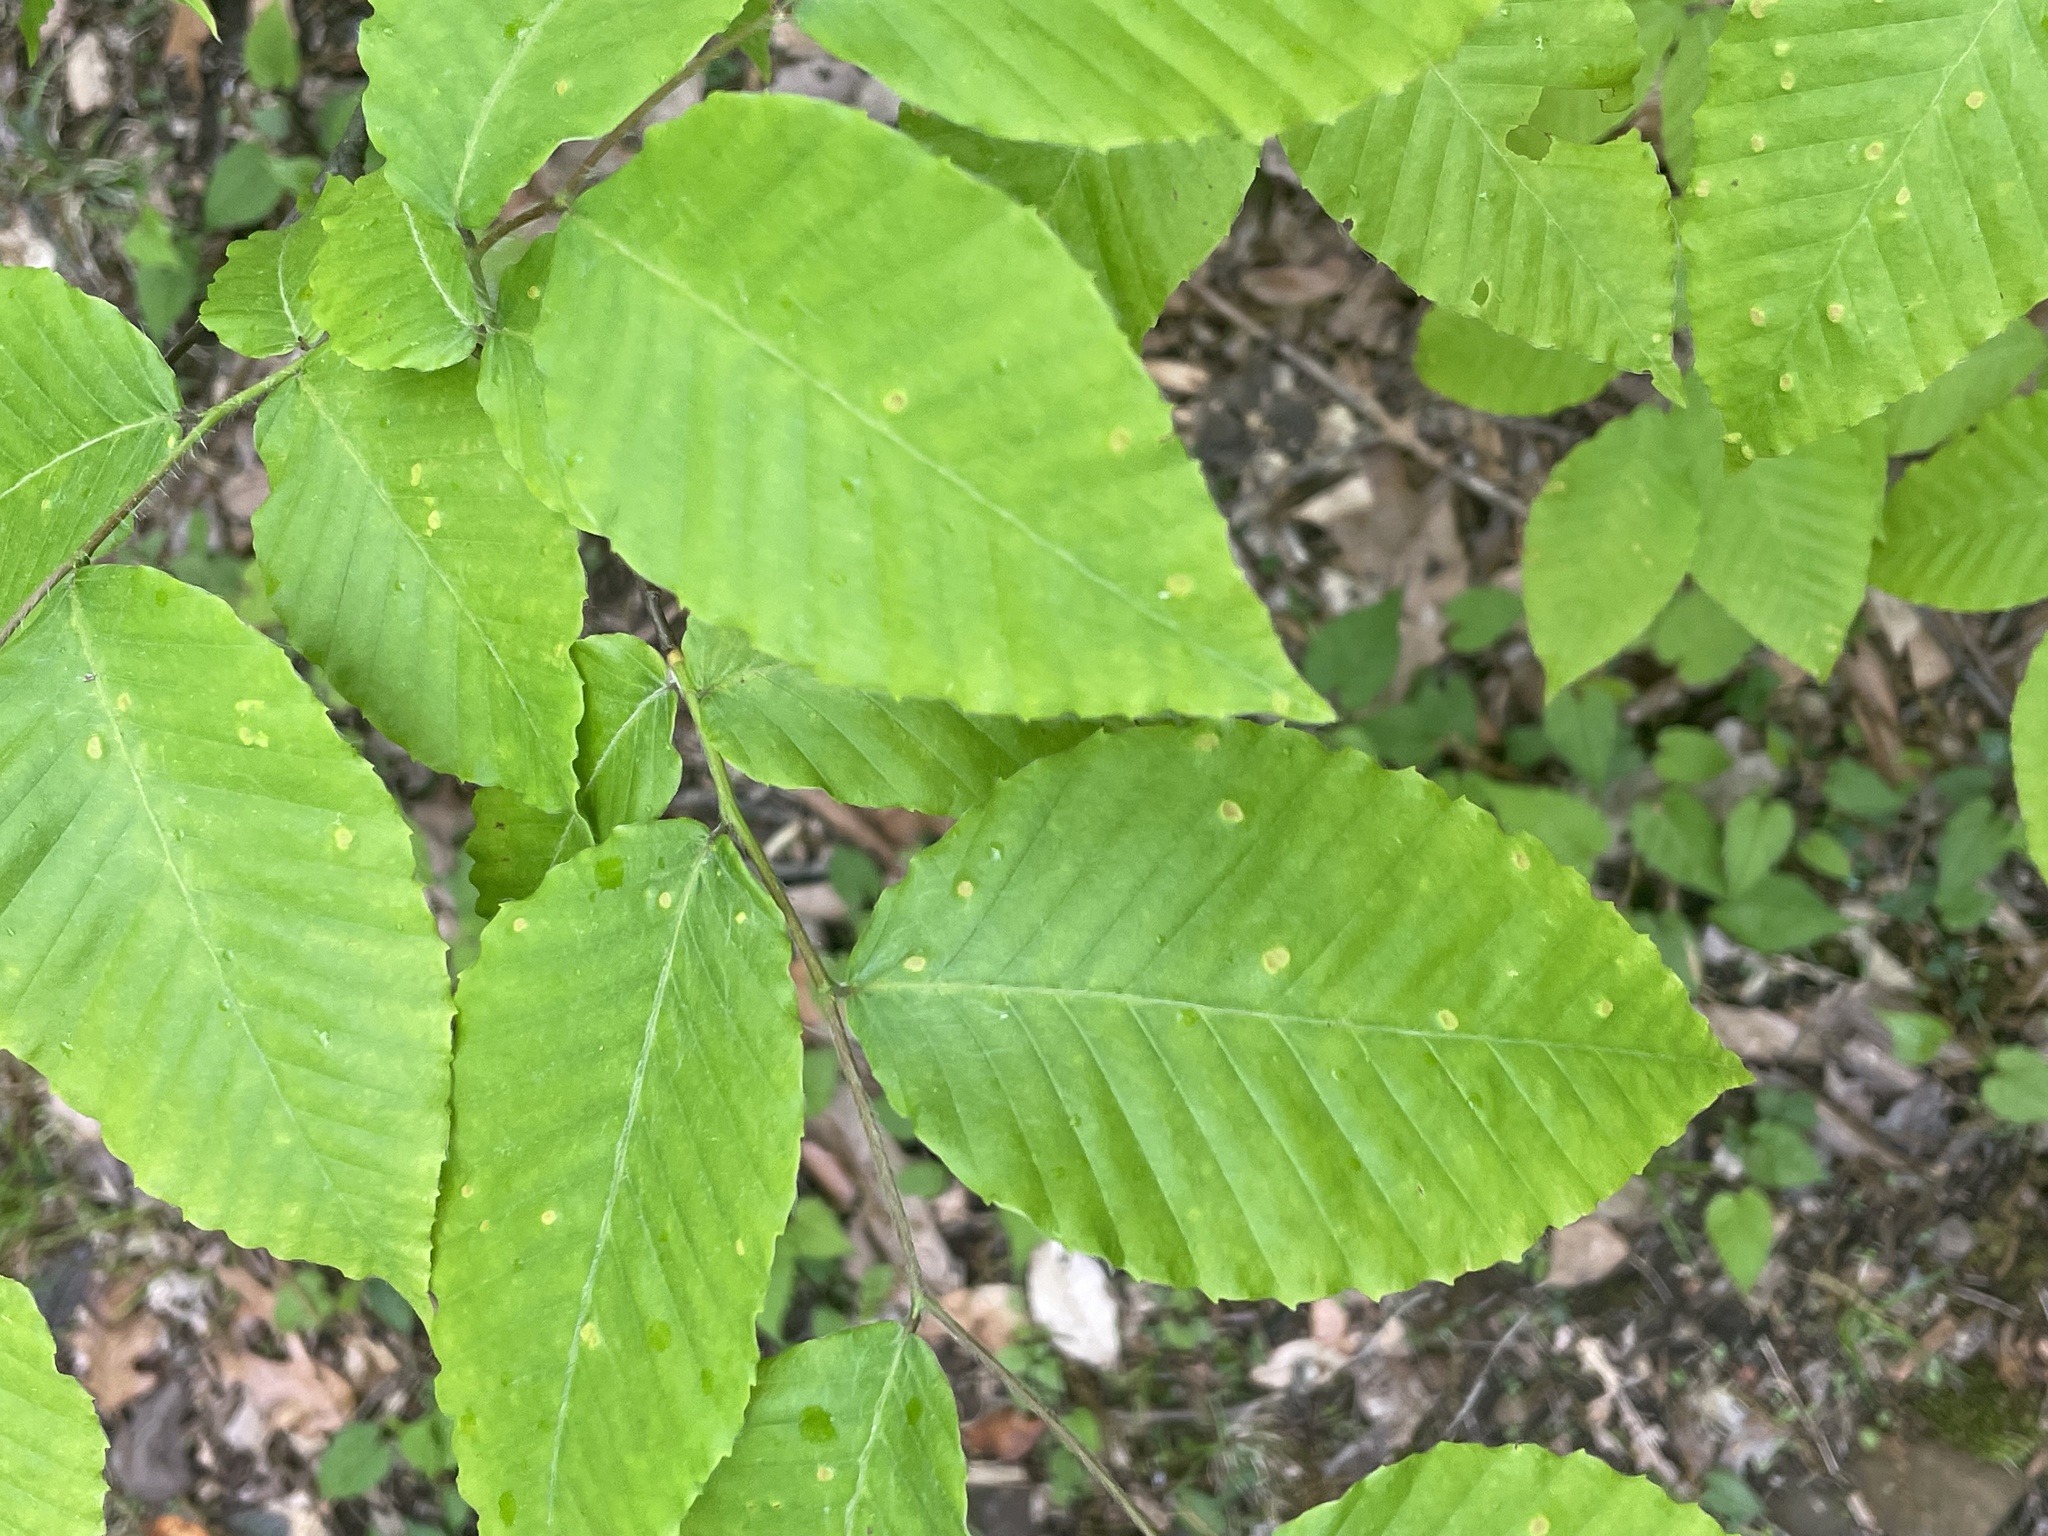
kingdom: Plantae
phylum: Tracheophyta
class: Magnoliopsida
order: Fagales
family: Fagaceae
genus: Fagus
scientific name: Fagus grandifolia
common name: American beech
